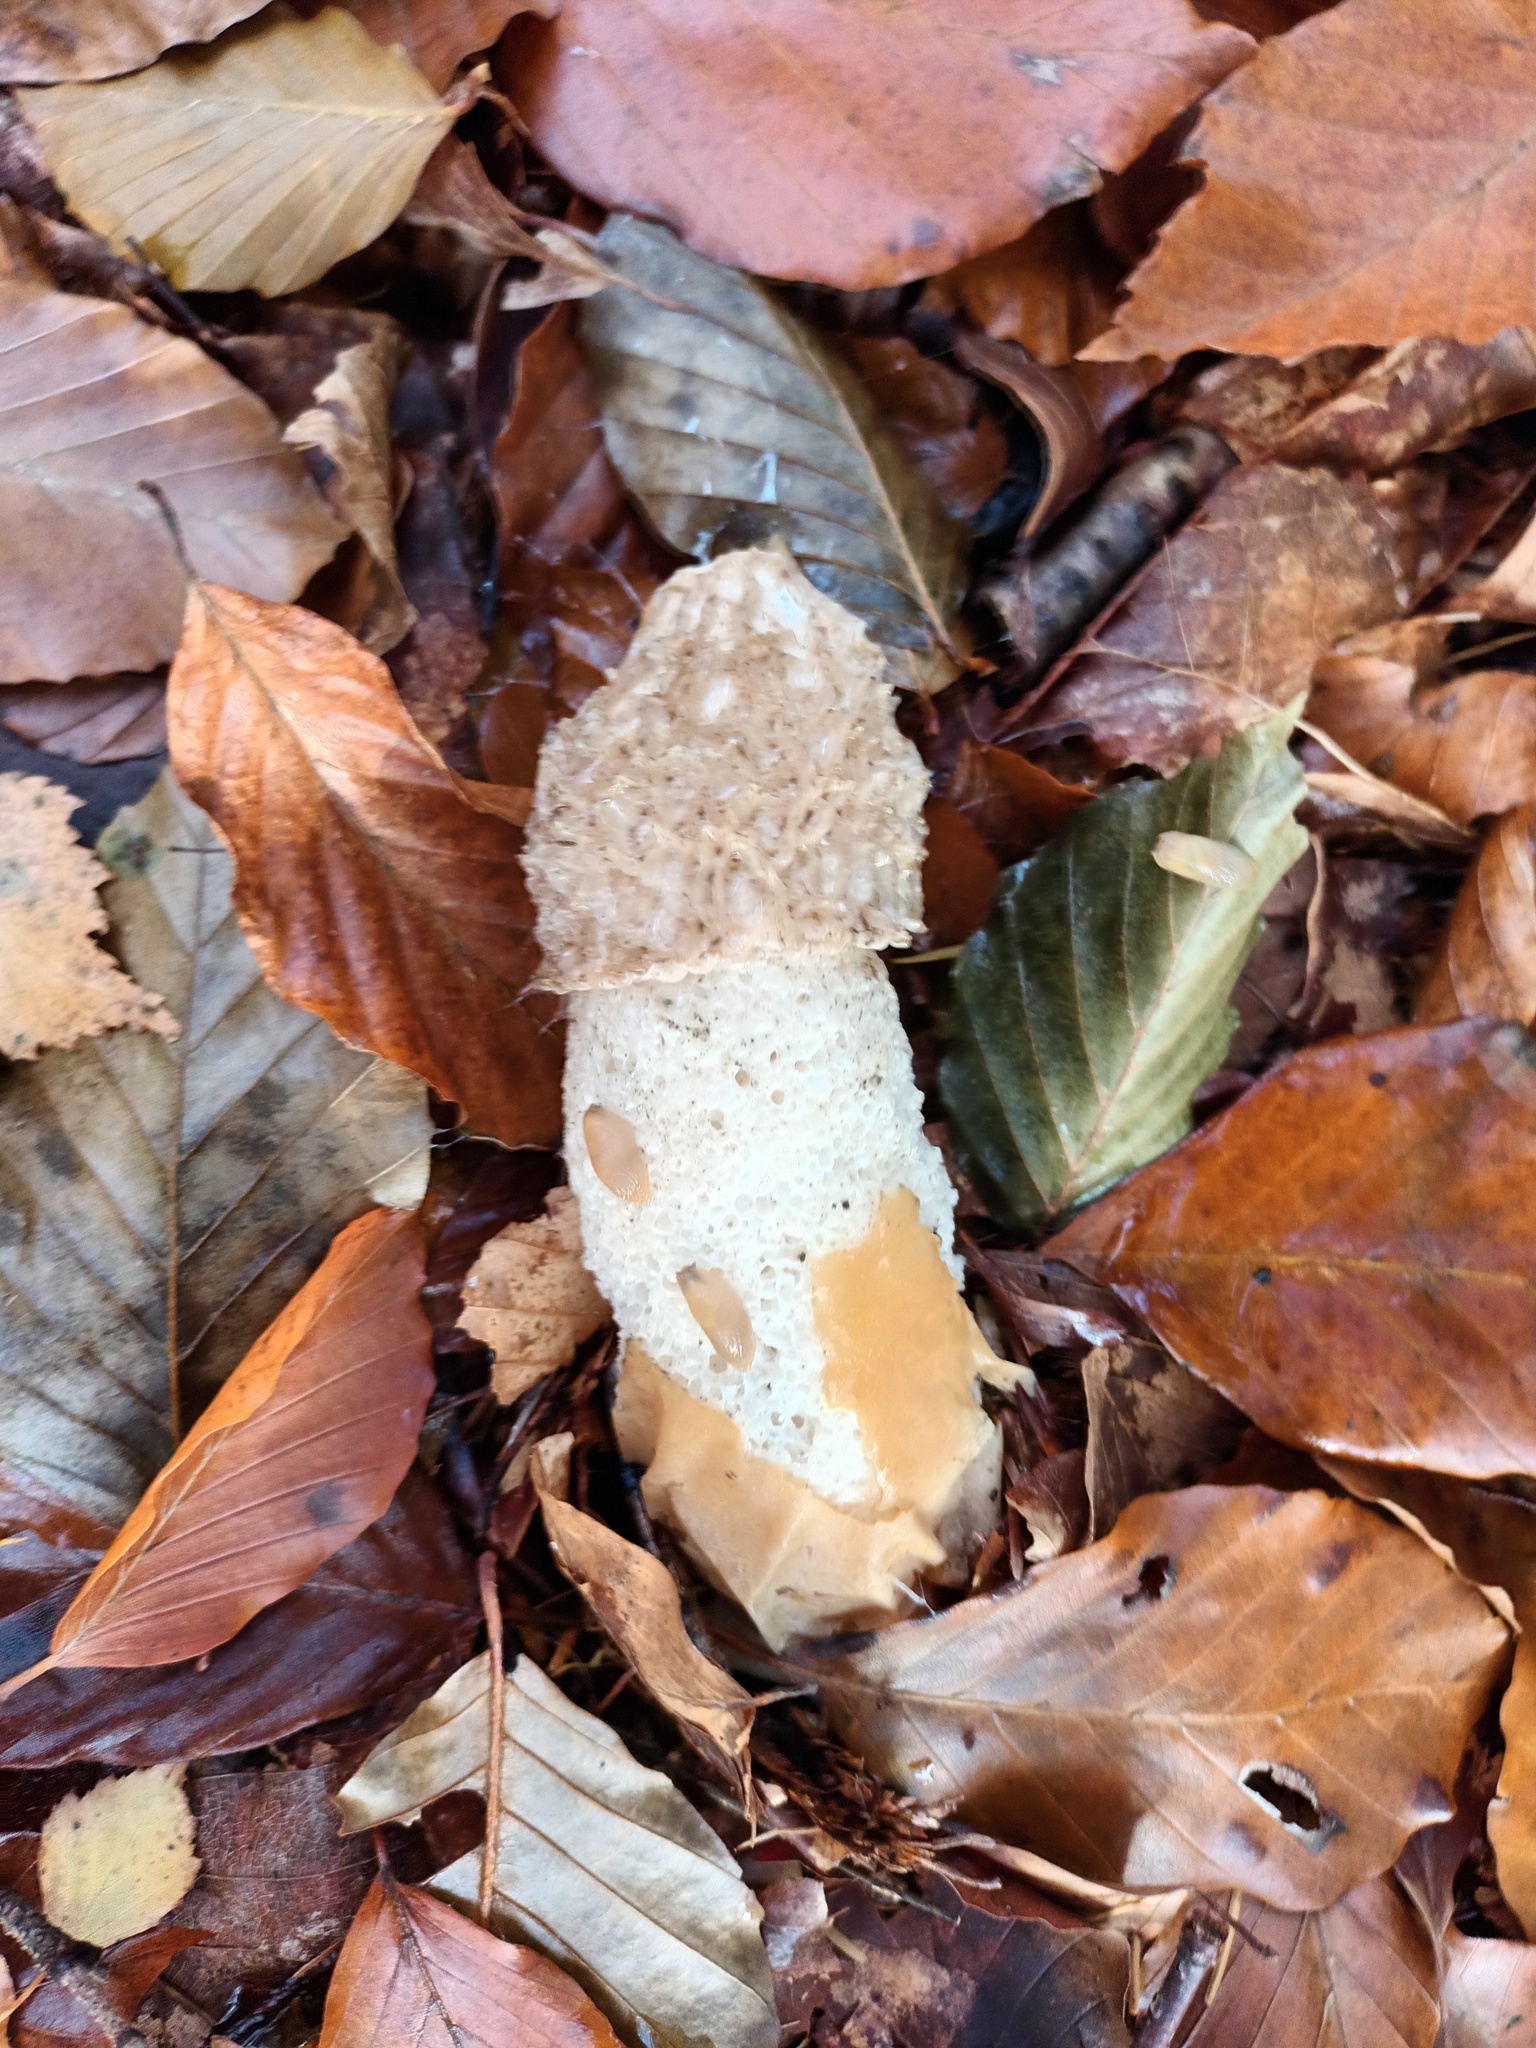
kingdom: Fungi
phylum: Basidiomycota
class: Agaricomycetes
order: Phallales
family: Phallaceae
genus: Phallus
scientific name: Phallus impudicus
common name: Common stinkhorn
